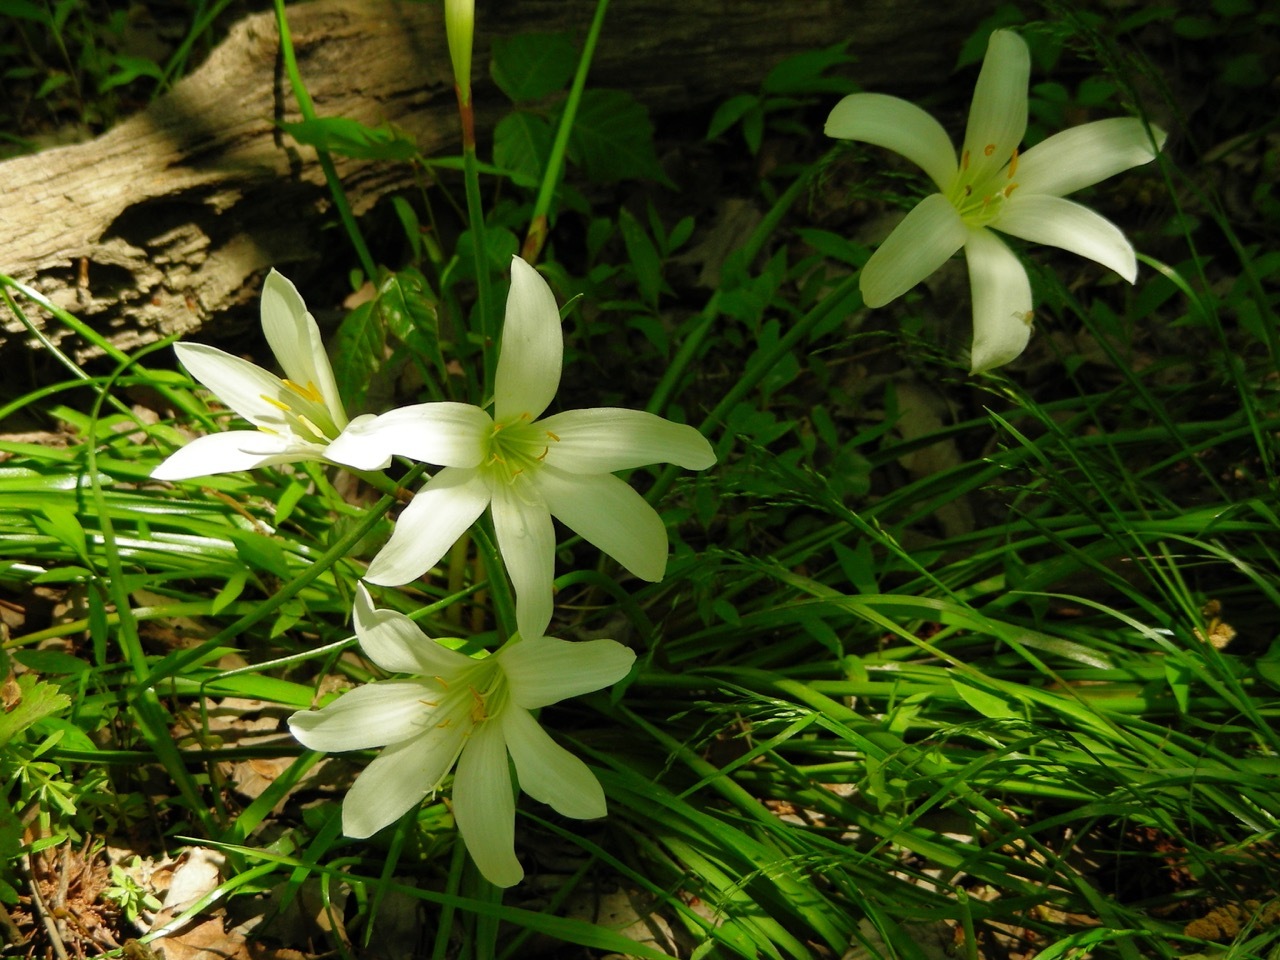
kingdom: Plantae
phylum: Tracheophyta
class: Liliopsida
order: Asparagales
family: Amaryllidaceae
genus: Zephyranthes
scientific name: Zephyranthes atamasco
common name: Atamasco lily
